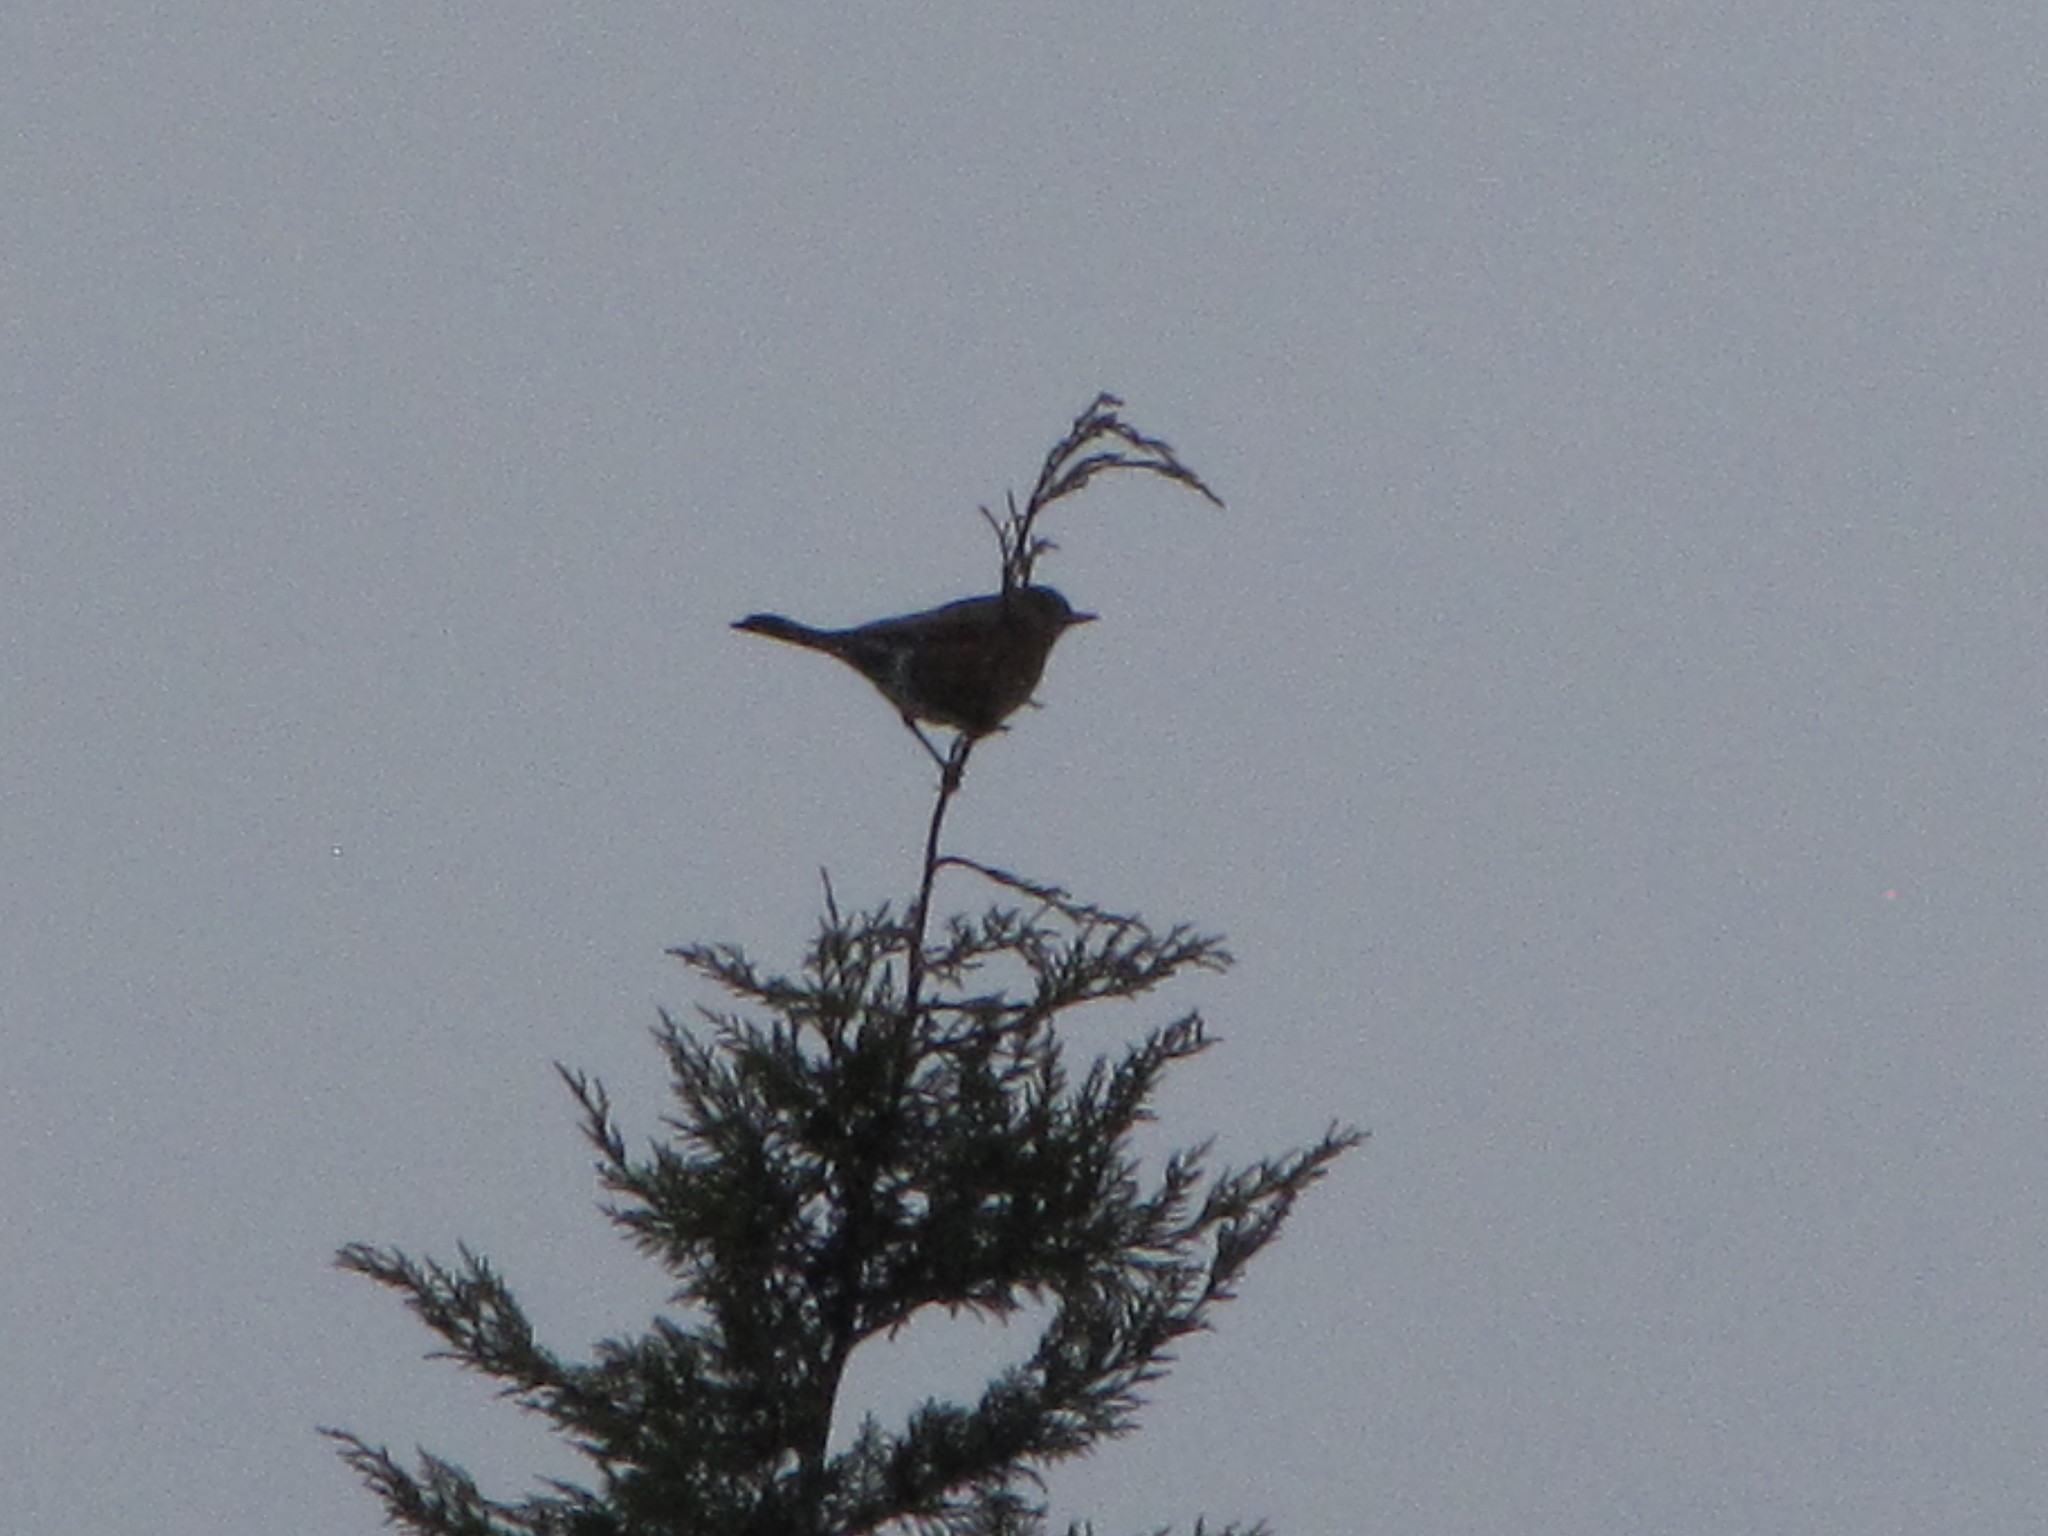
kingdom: Animalia
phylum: Chordata
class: Aves
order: Passeriformes
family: Turdidae
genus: Turdus
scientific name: Turdus migratorius
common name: American robin
